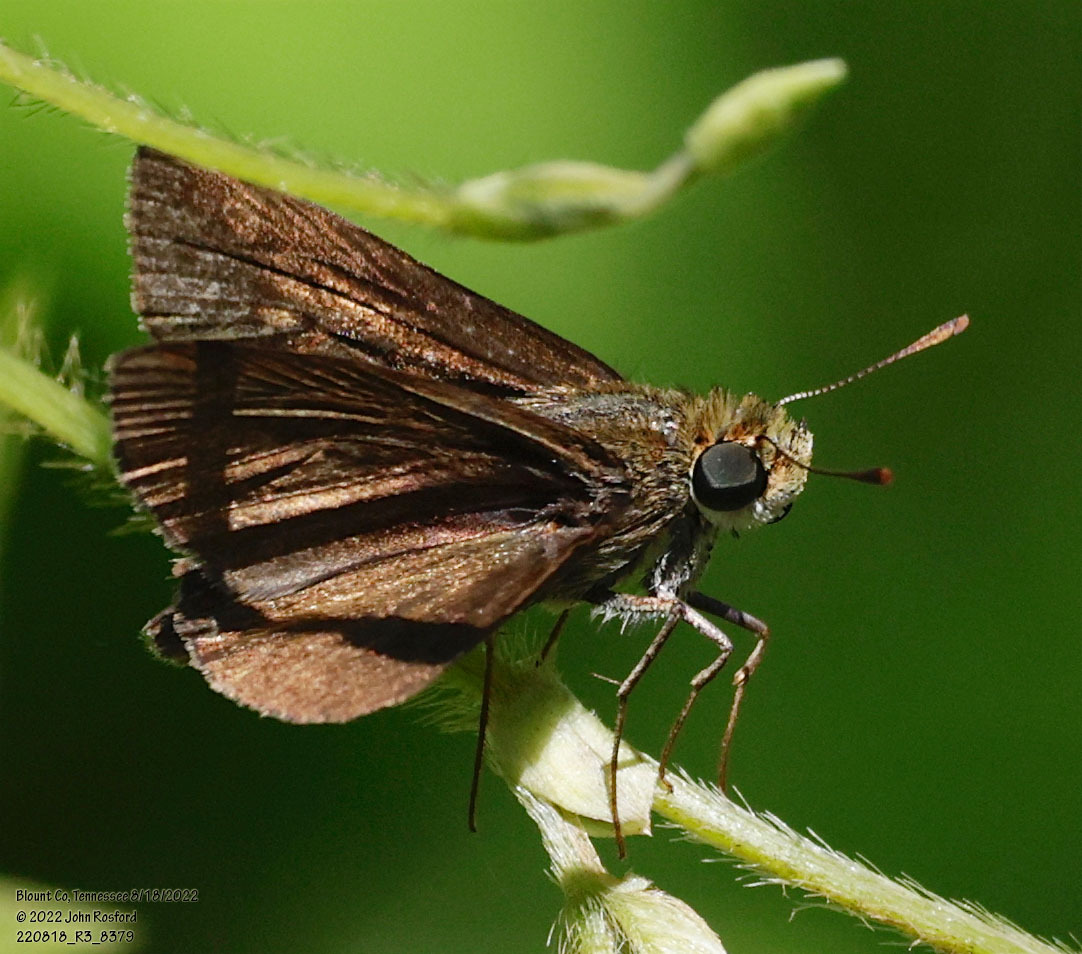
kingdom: Animalia
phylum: Arthropoda
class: Insecta
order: Lepidoptera
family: Hesperiidae
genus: Euphyes
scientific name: Euphyes vestris
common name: Dun skipper
